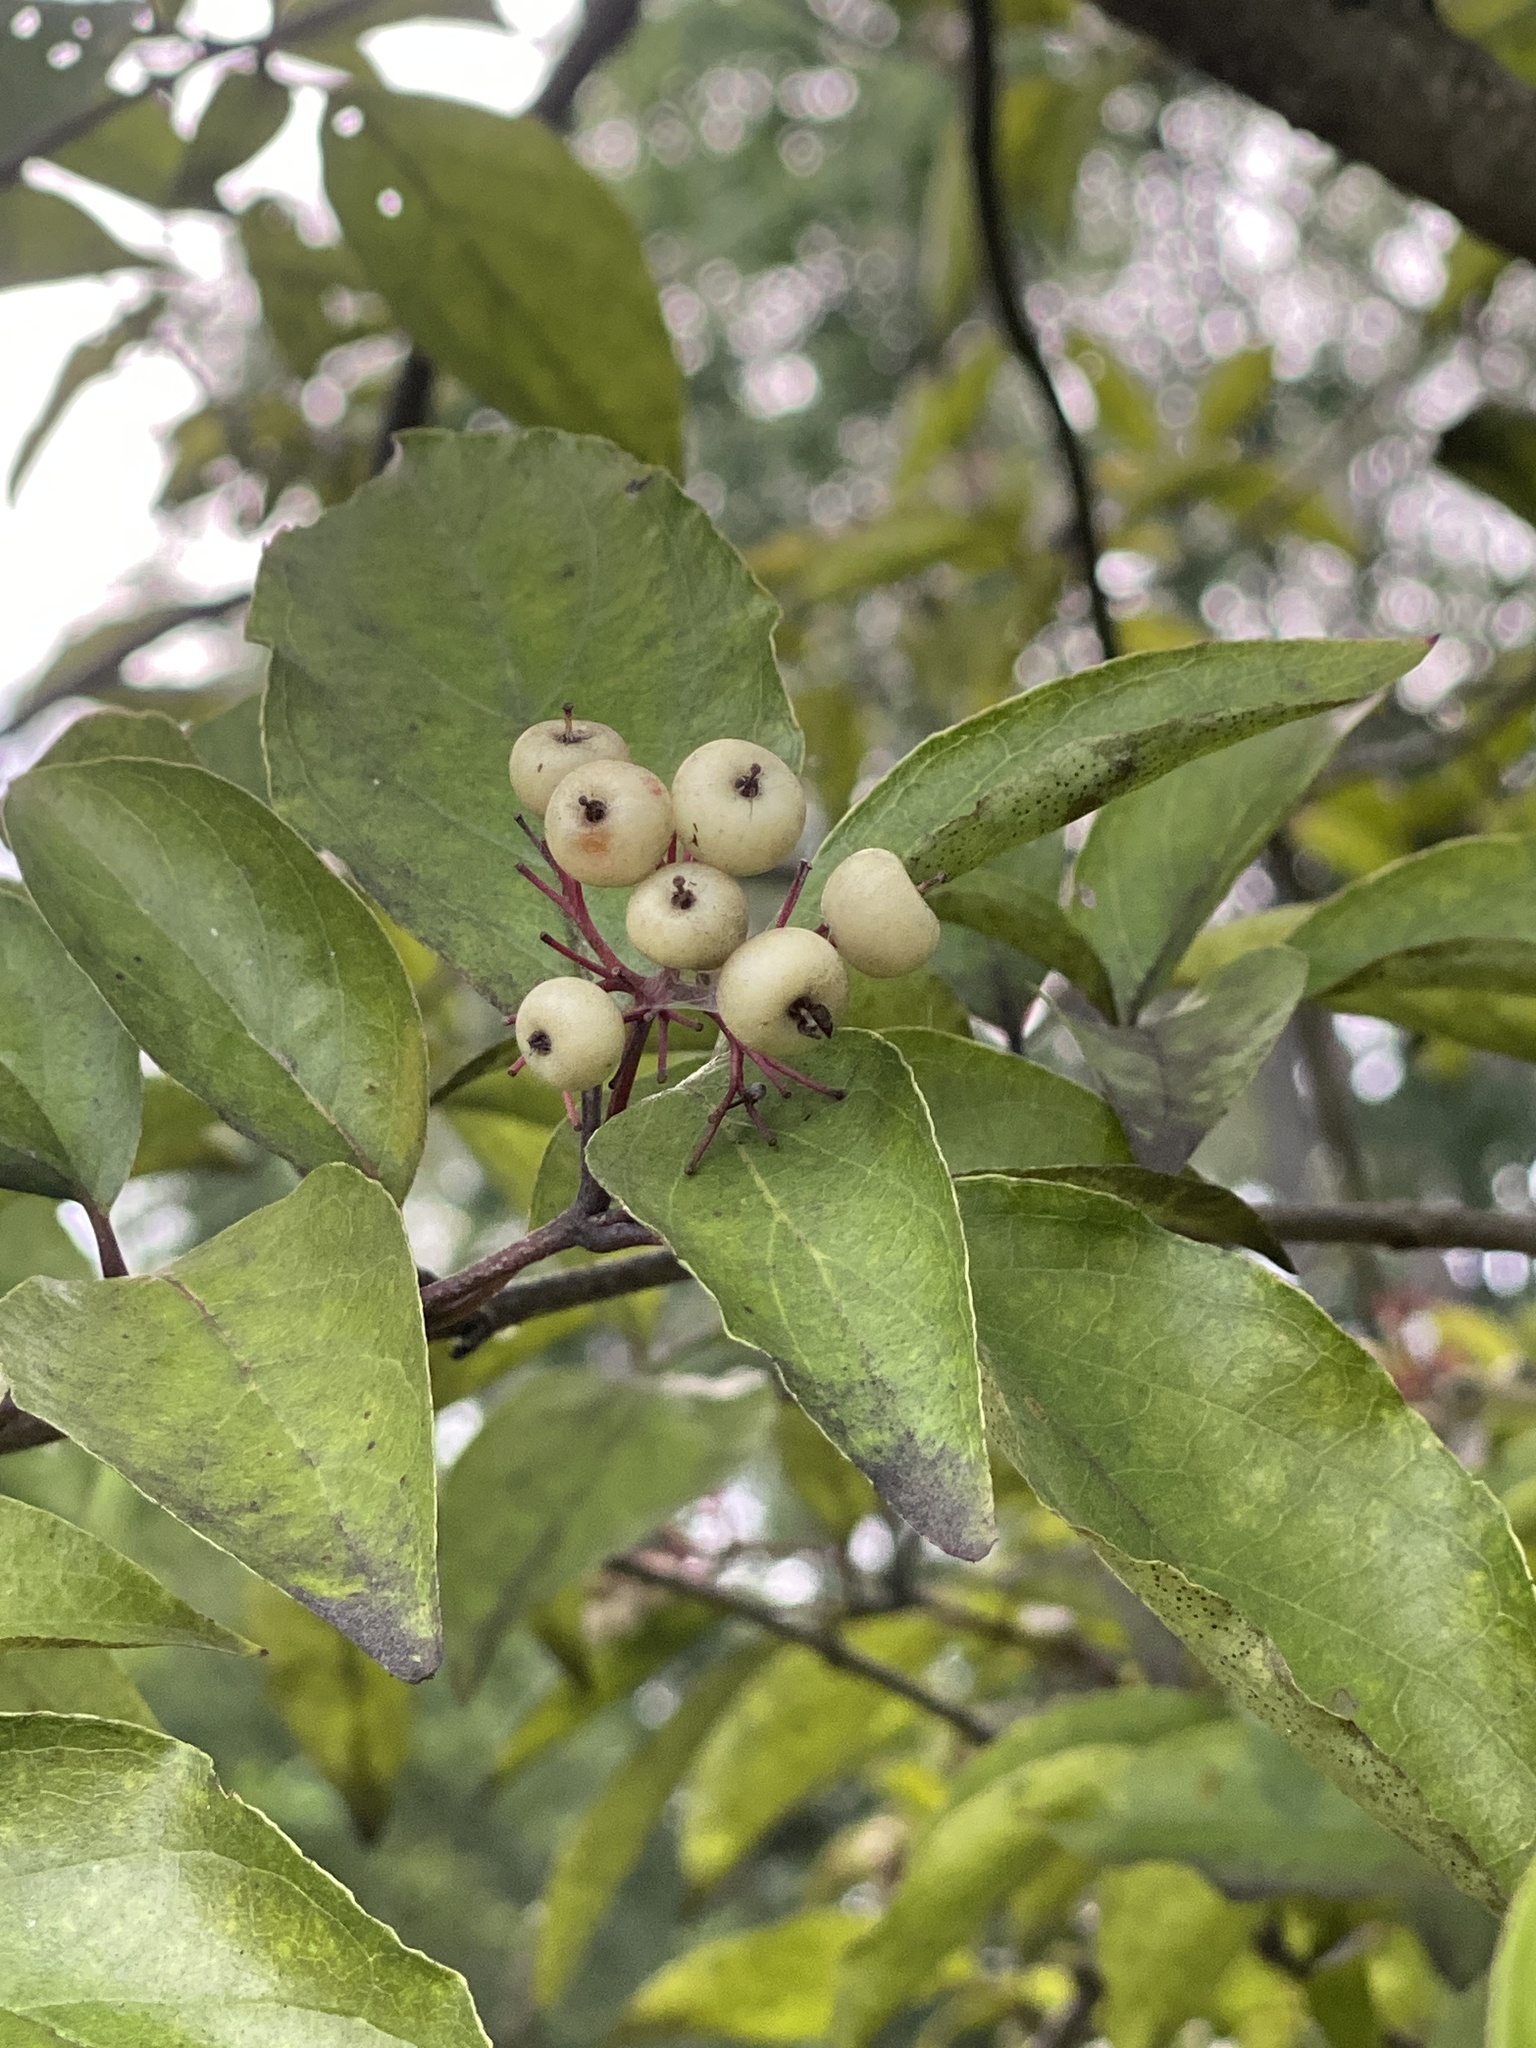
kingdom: Plantae
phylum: Tracheophyta
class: Magnoliopsida
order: Cornales
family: Cornaceae
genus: Cornus
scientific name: Cornus racemosa
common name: Panicled dogwood
